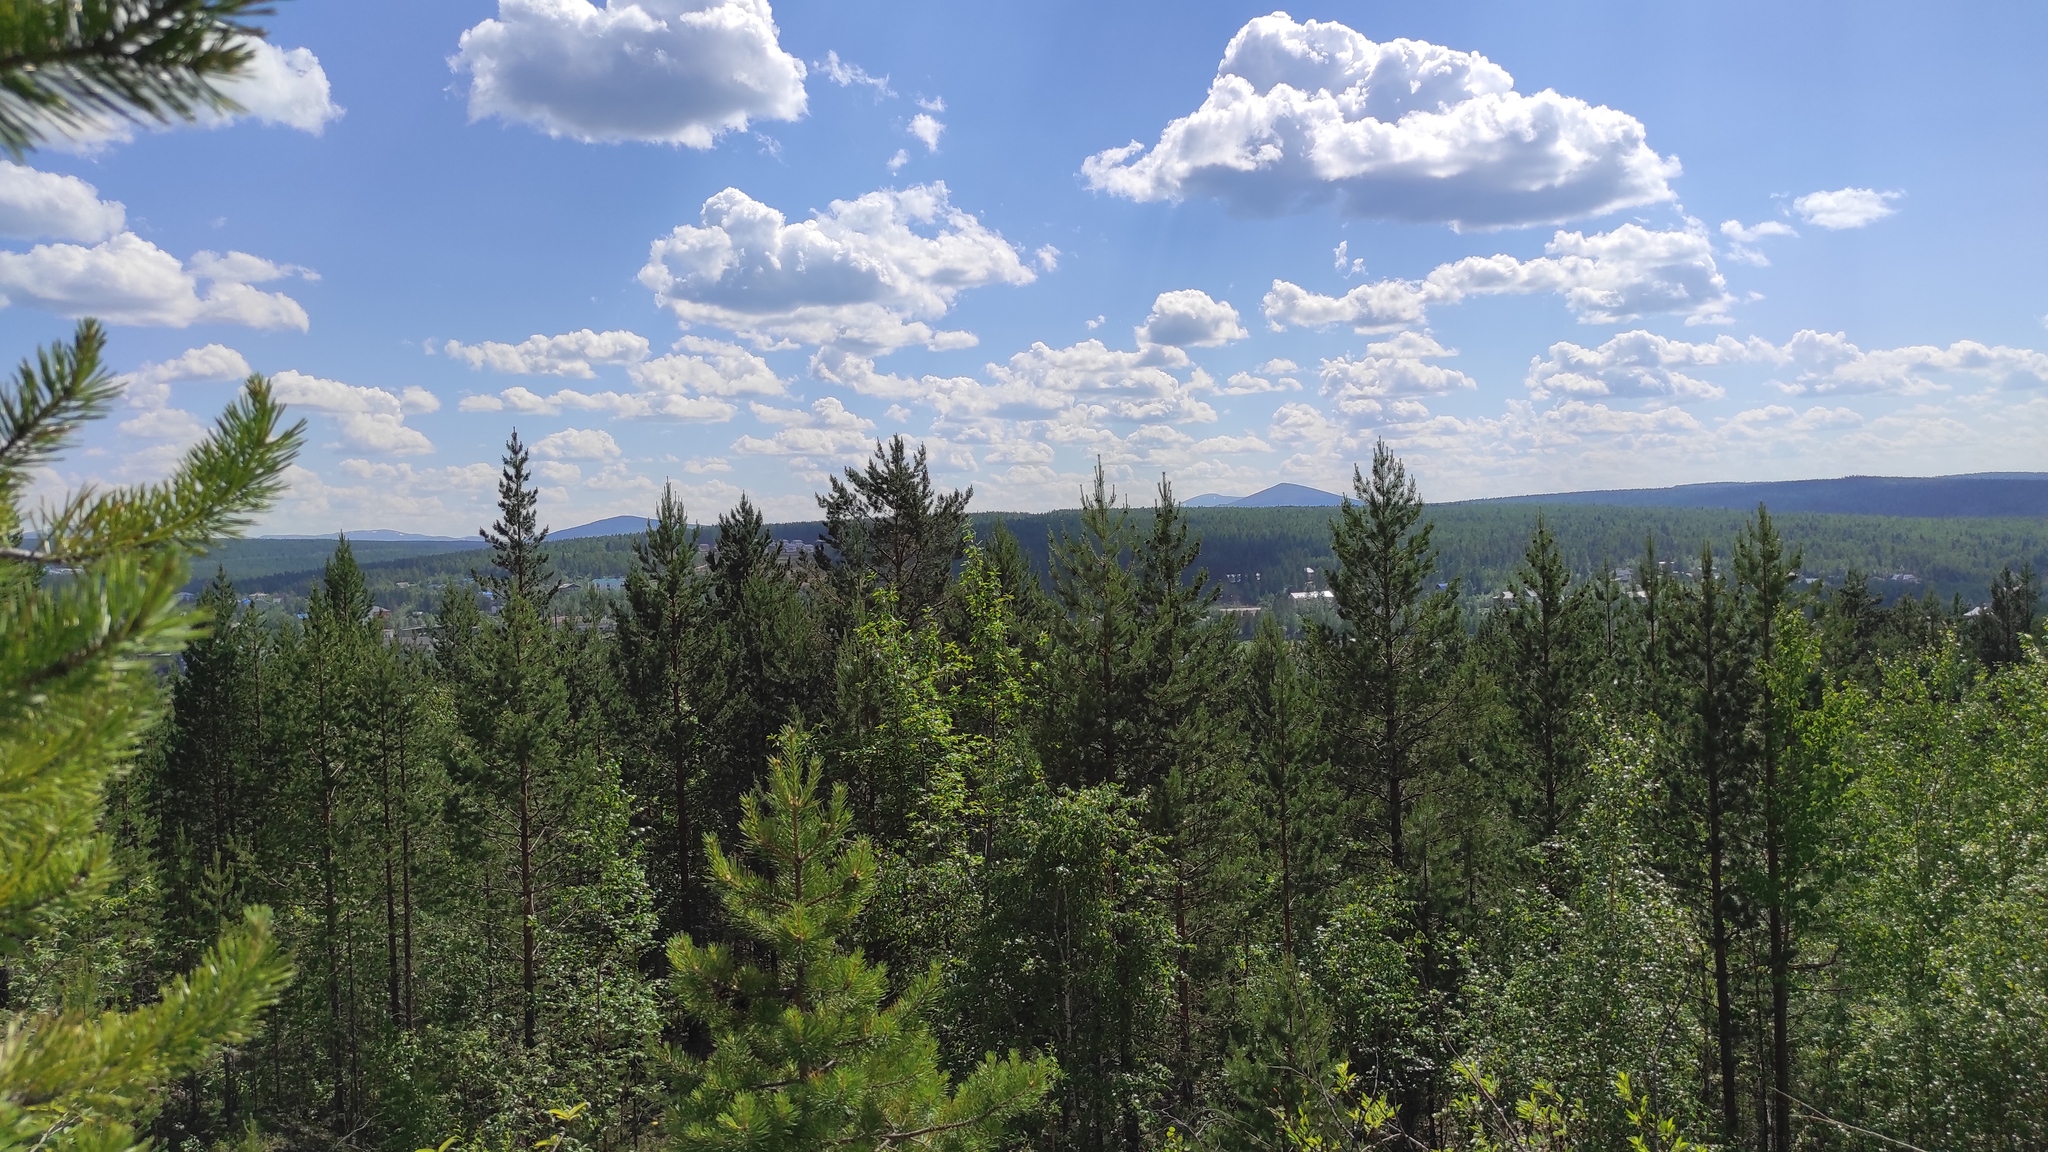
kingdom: Plantae
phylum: Tracheophyta
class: Pinopsida
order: Pinales
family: Pinaceae
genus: Pinus
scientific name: Pinus sylvestris
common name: Scots pine
